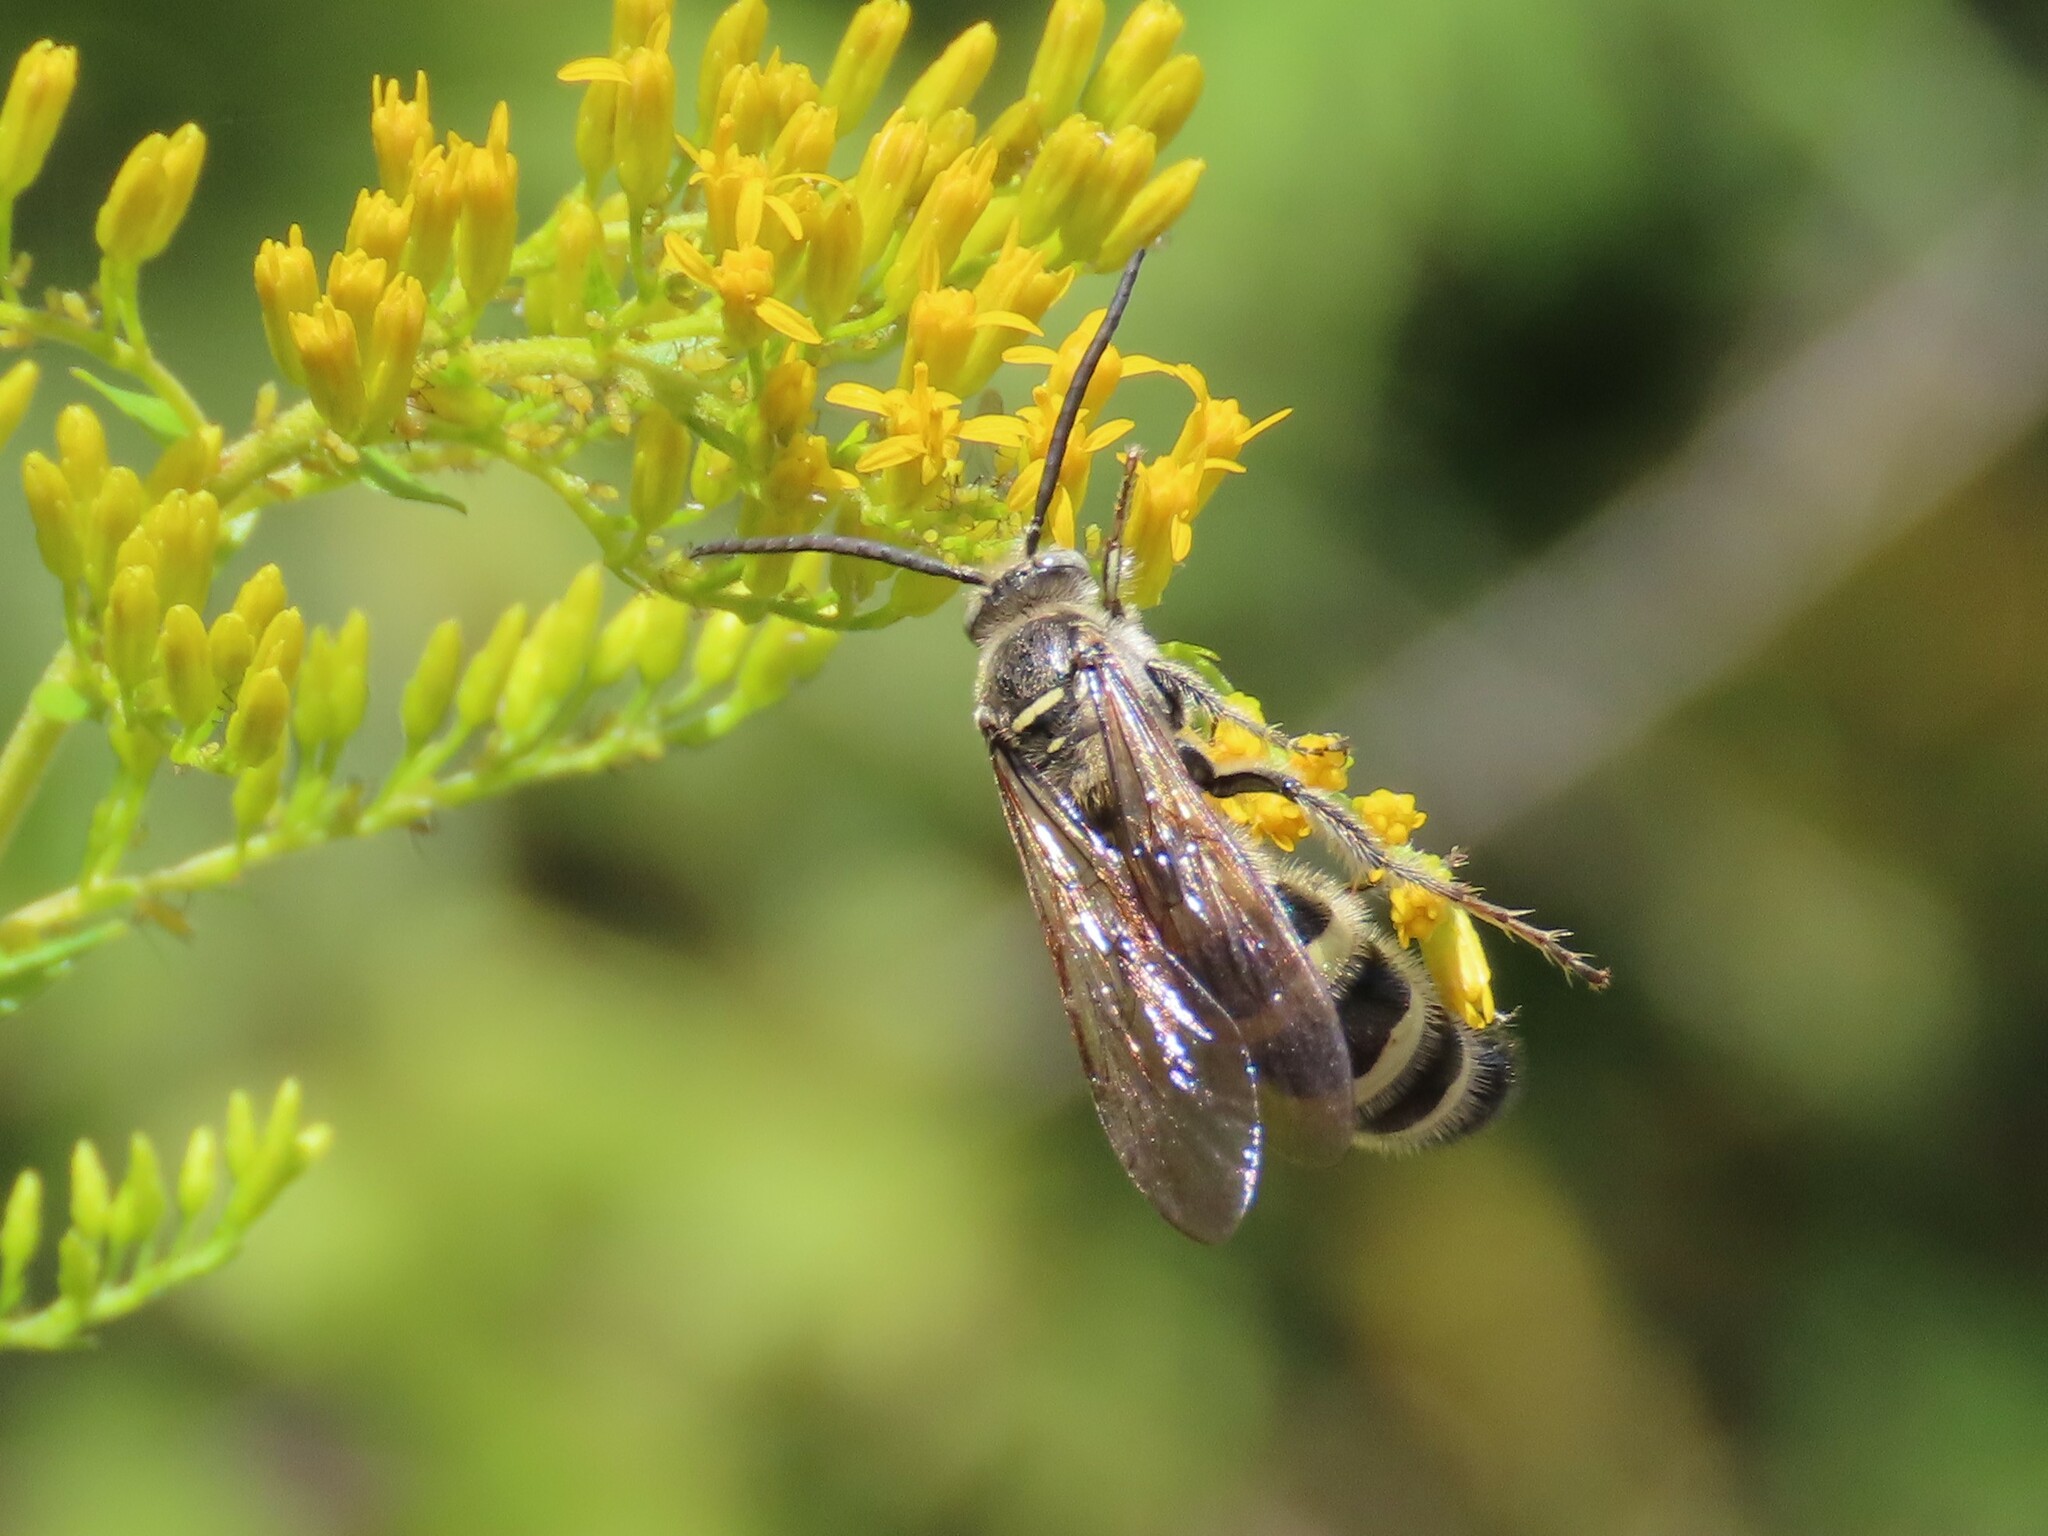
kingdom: Animalia
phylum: Arthropoda
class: Insecta
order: Hymenoptera
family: Scoliidae
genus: Dielis
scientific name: Dielis
